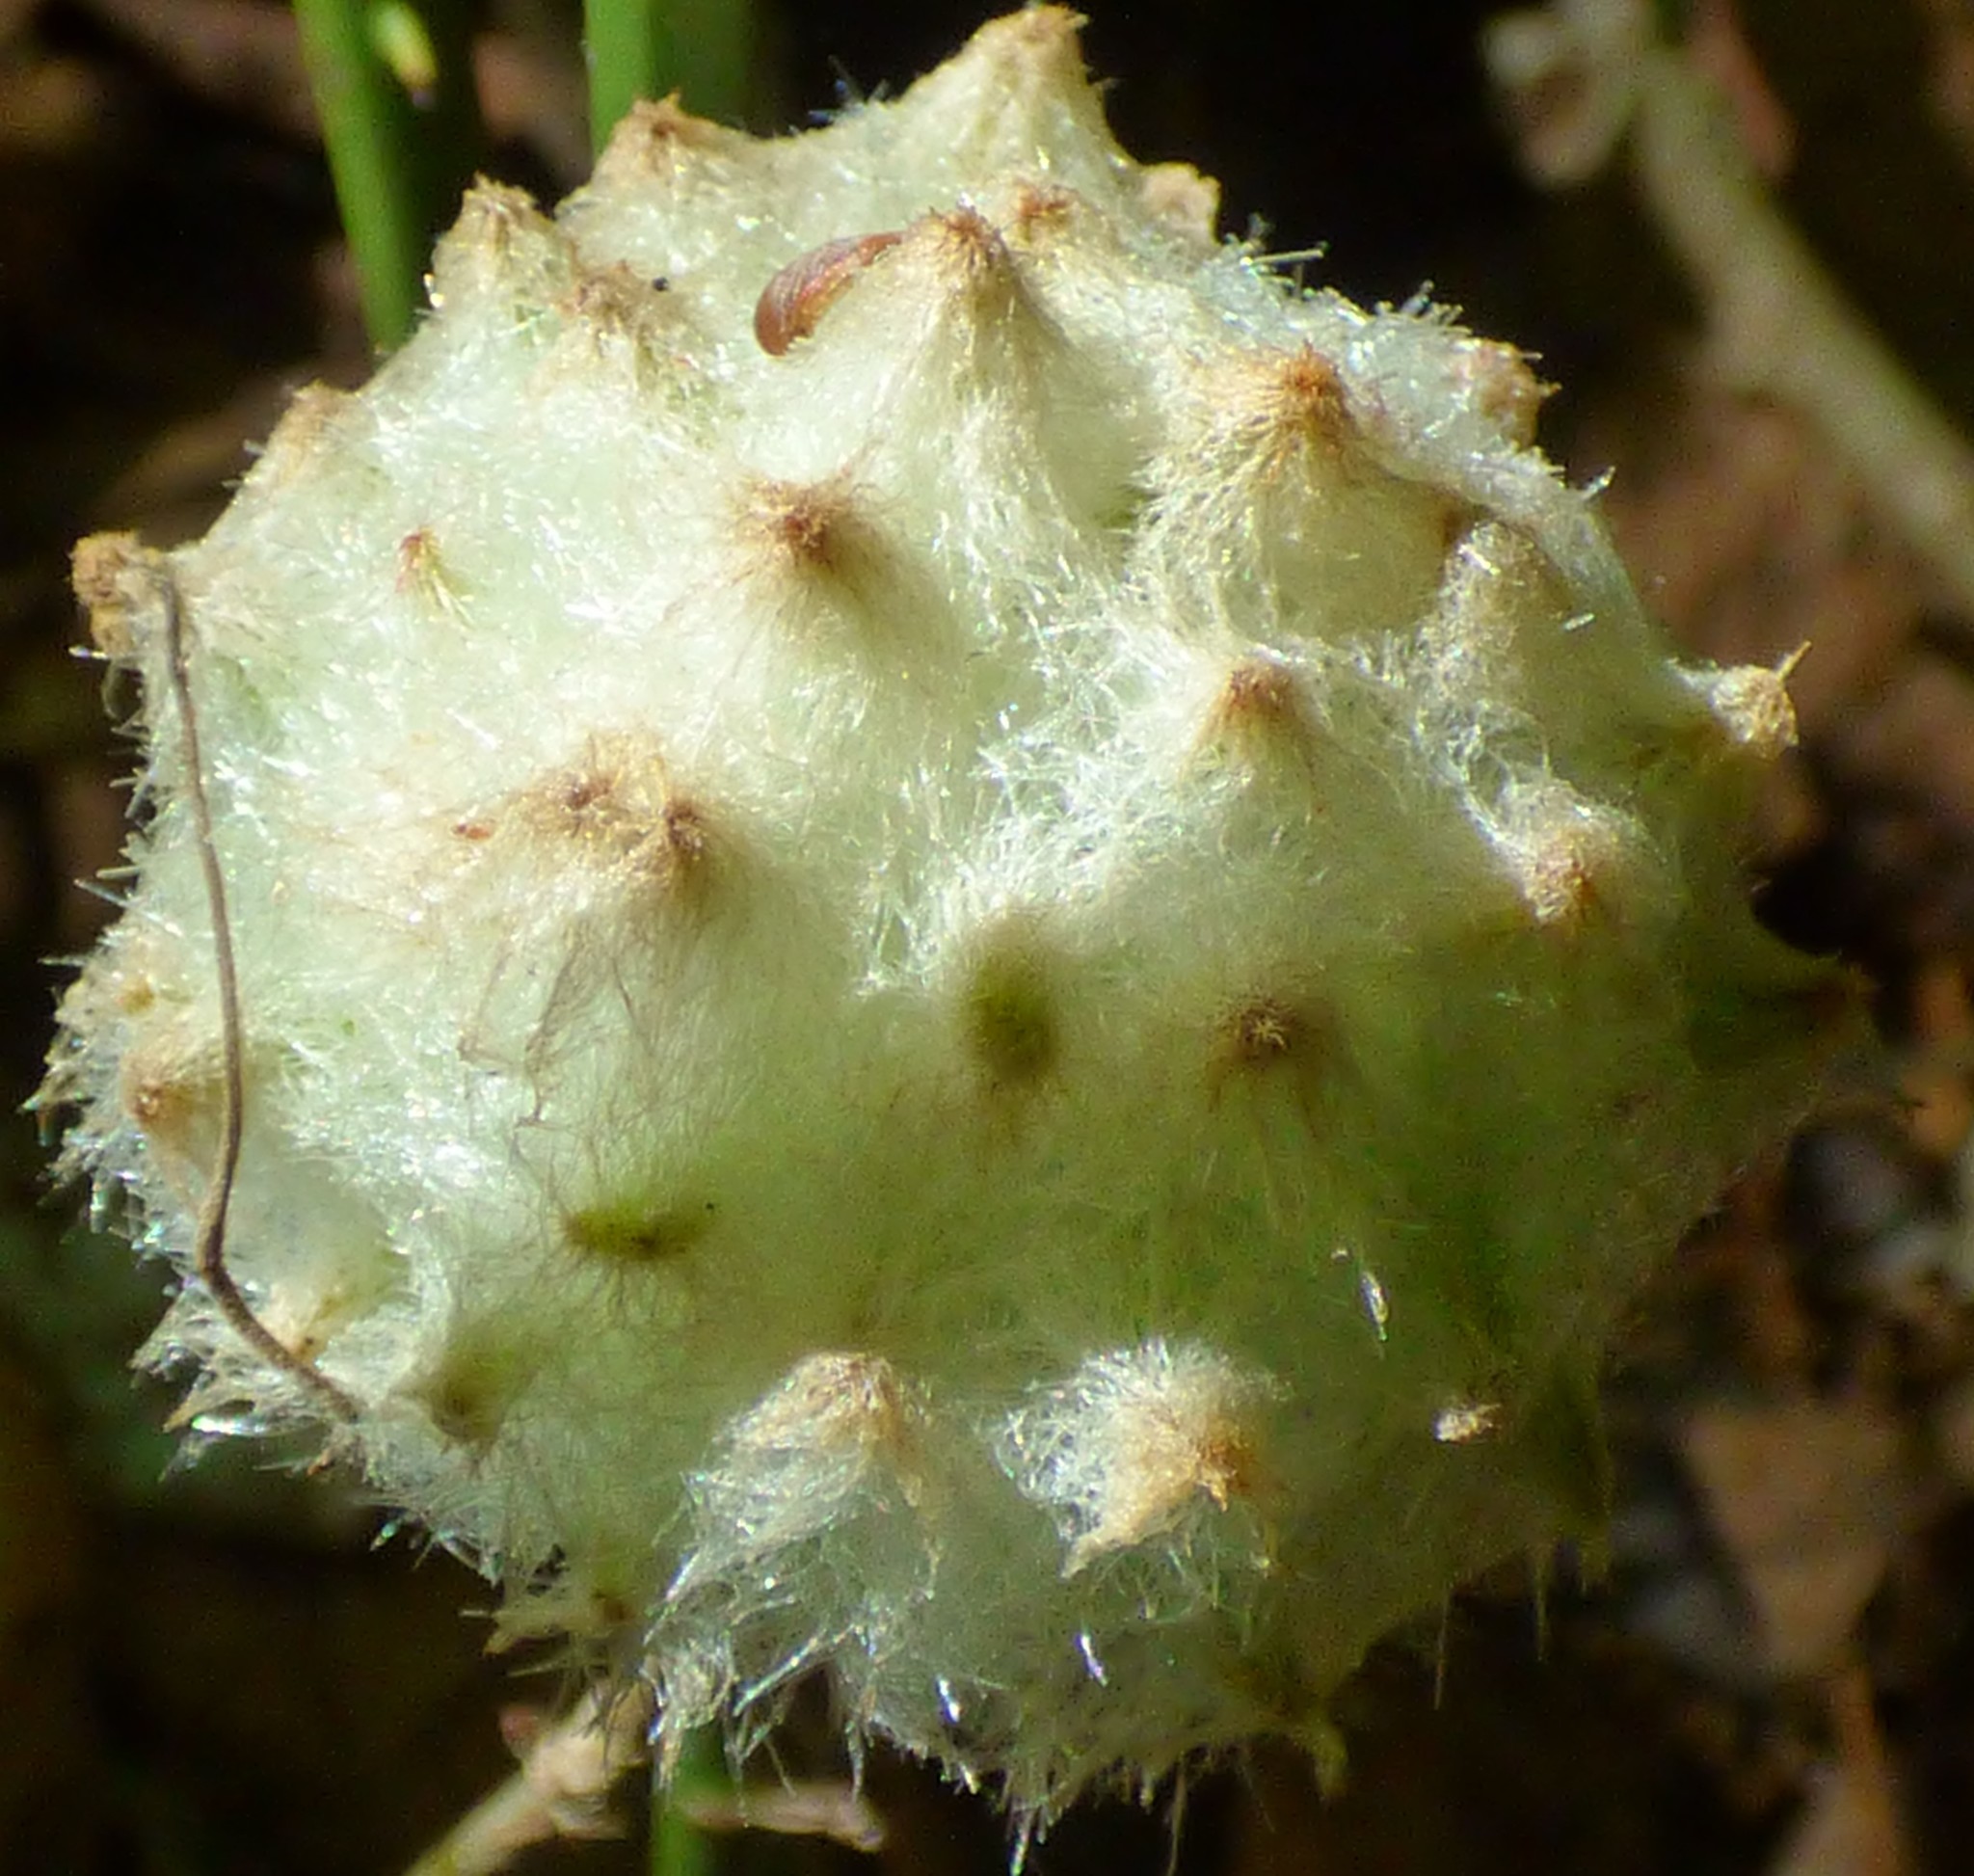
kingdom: Animalia
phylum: Arthropoda
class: Insecta
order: Hymenoptera
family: Cynipidae
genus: Callirhytis
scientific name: Callirhytis
